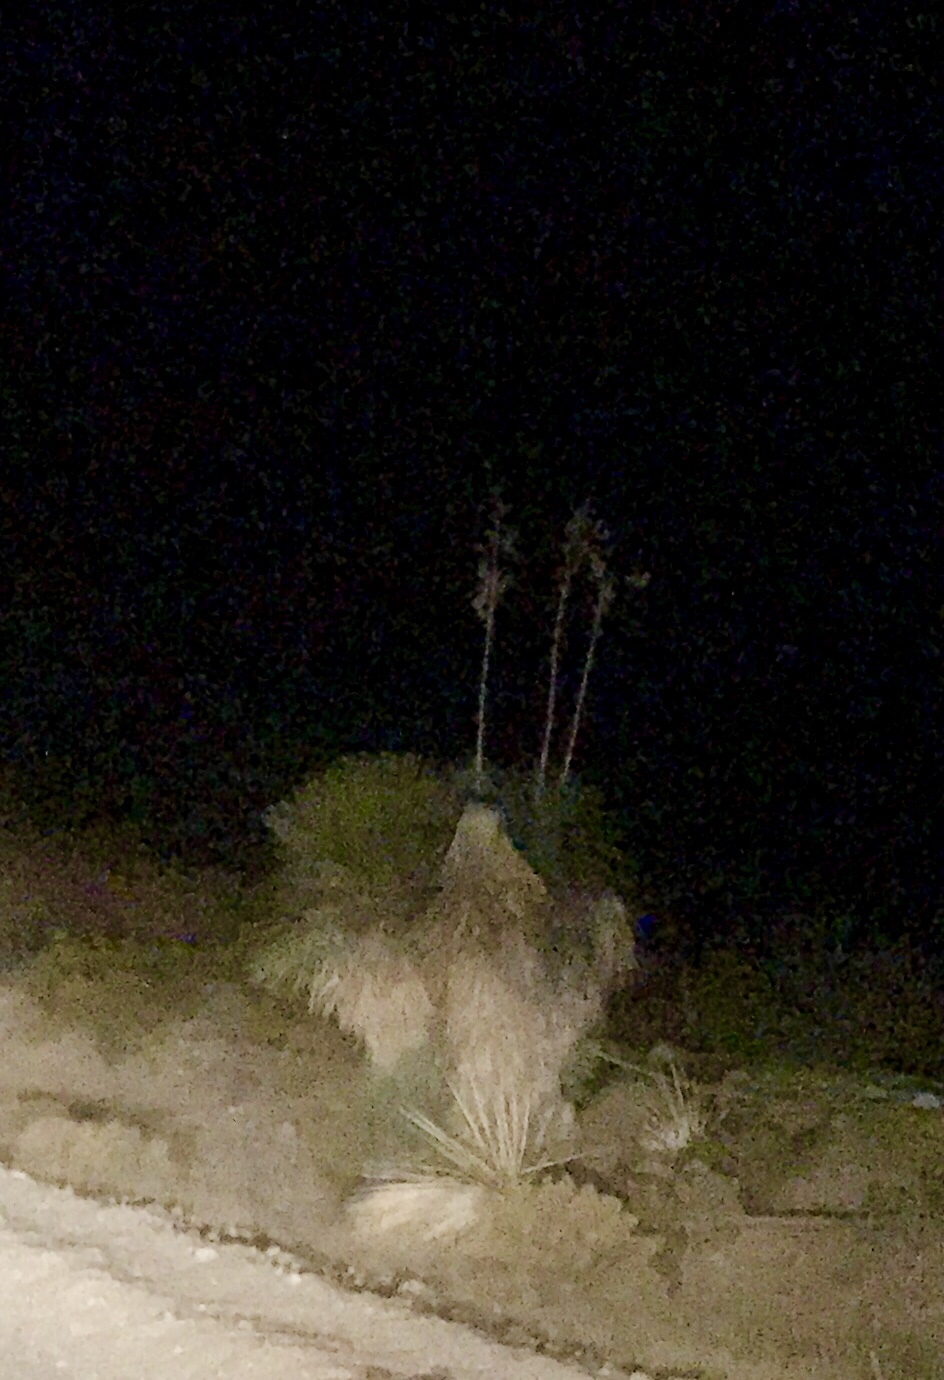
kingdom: Plantae
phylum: Tracheophyta
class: Liliopsida
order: Asparagales
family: Asparagaceae
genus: Yucca
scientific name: Yucca elata
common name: Palmella
